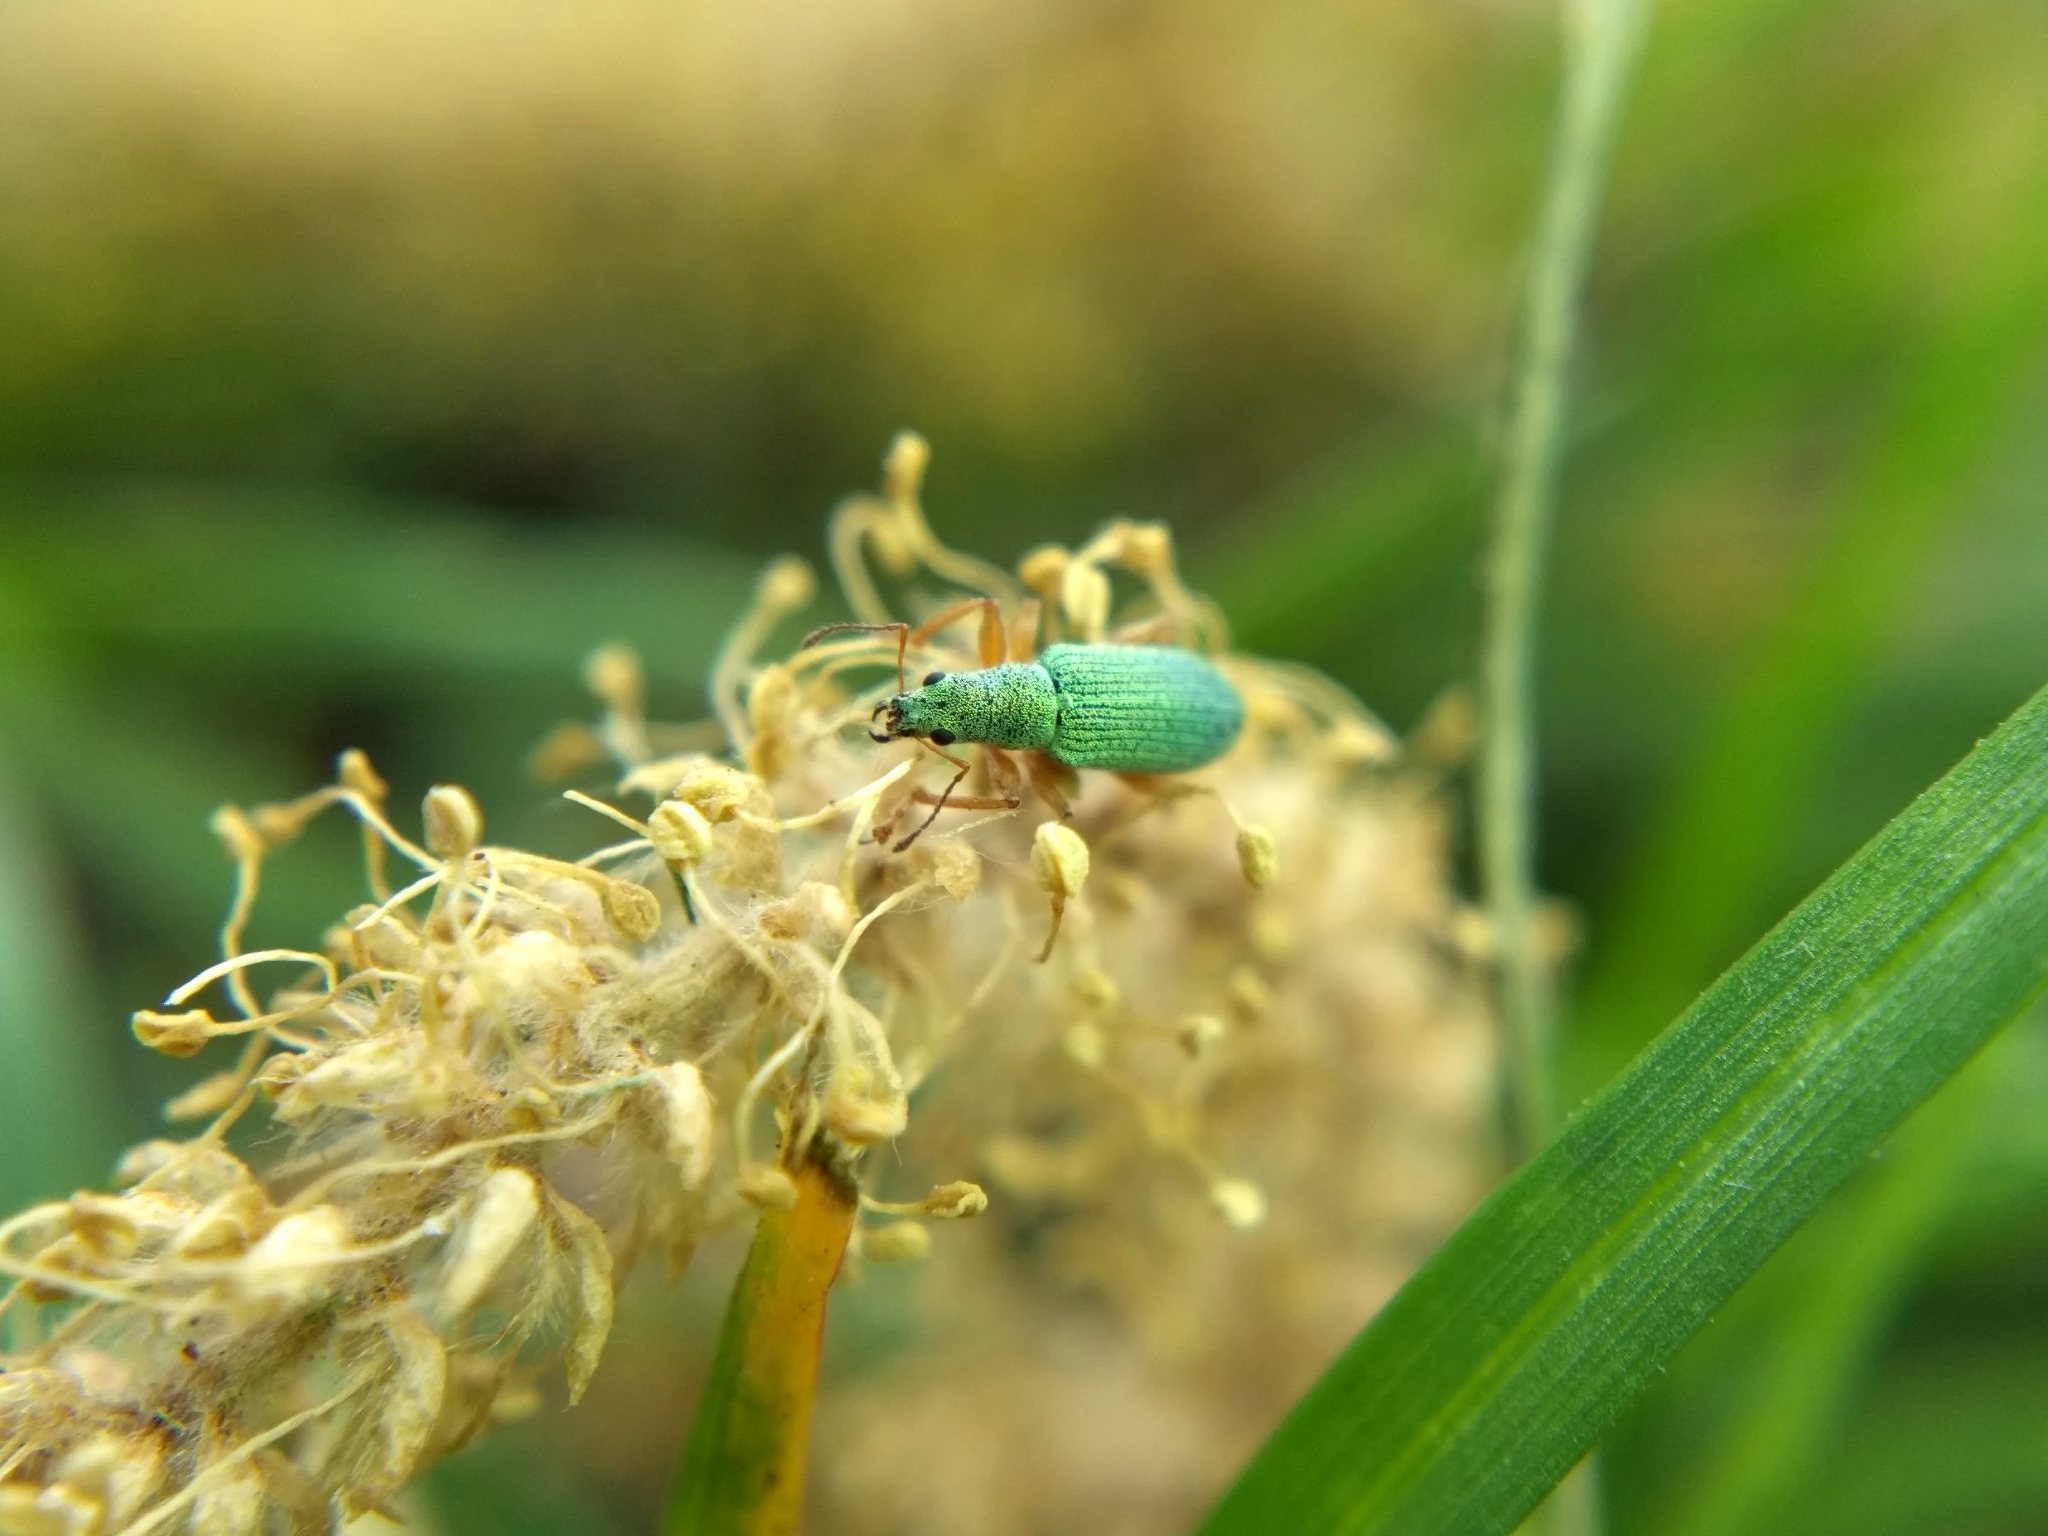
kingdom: Animalia
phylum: Arthropoda
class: Insecta
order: Coleoptera
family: Curculionidae
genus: Polydrusus
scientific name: Polydrusus impressifrons
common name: Weevil
